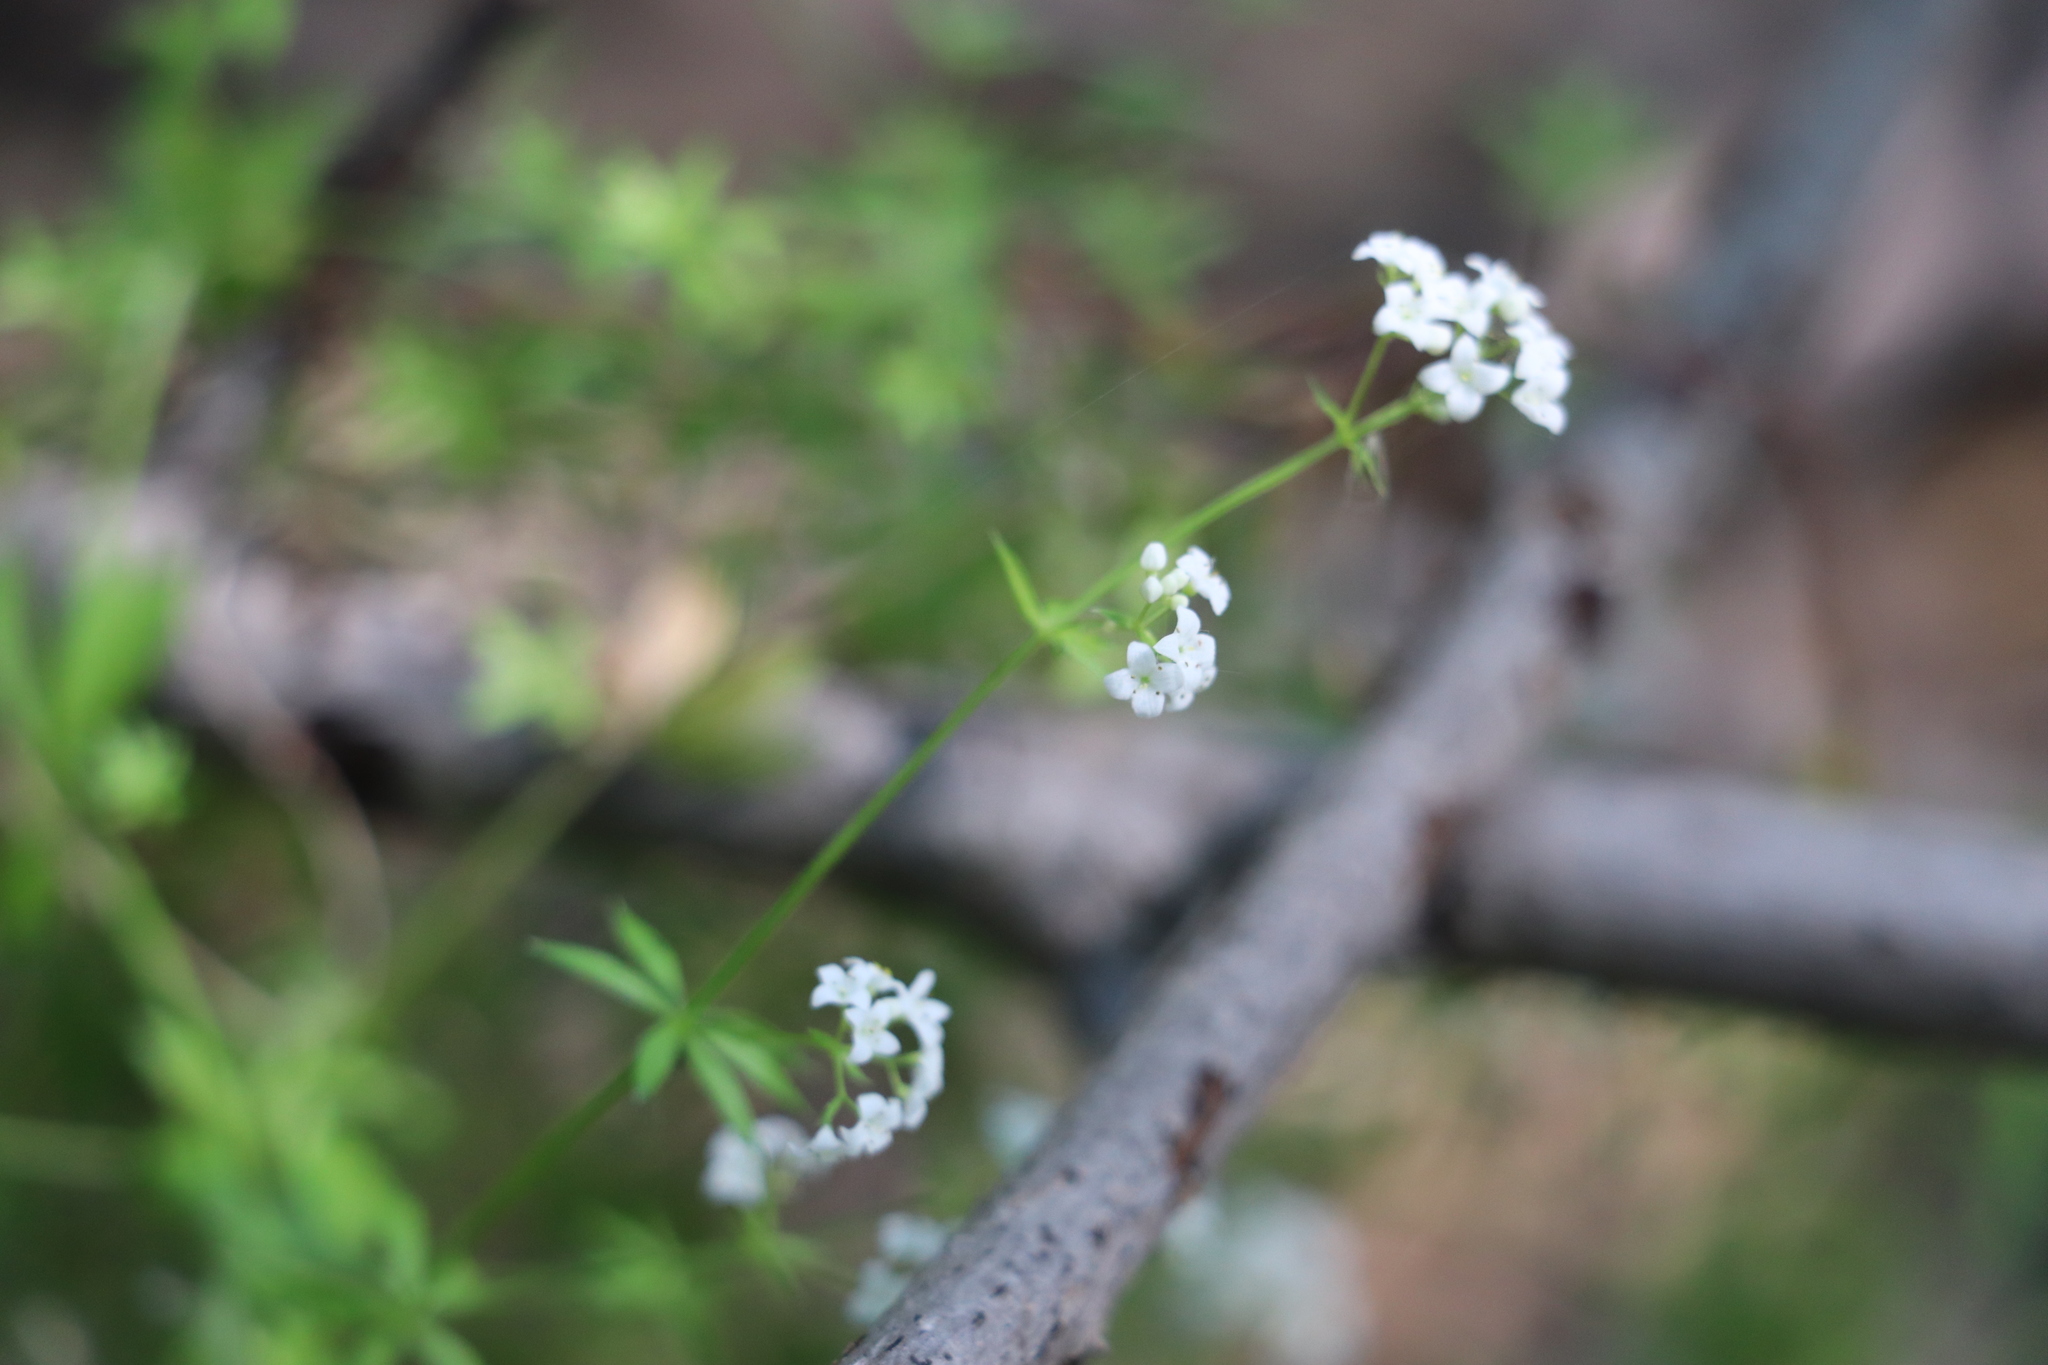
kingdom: Plantae
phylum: Tracheophyta
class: Magnoliopsida
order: Gentianales
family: Rubiaceae
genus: Galium
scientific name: Galium uliginosum
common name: Fen bedstraw
